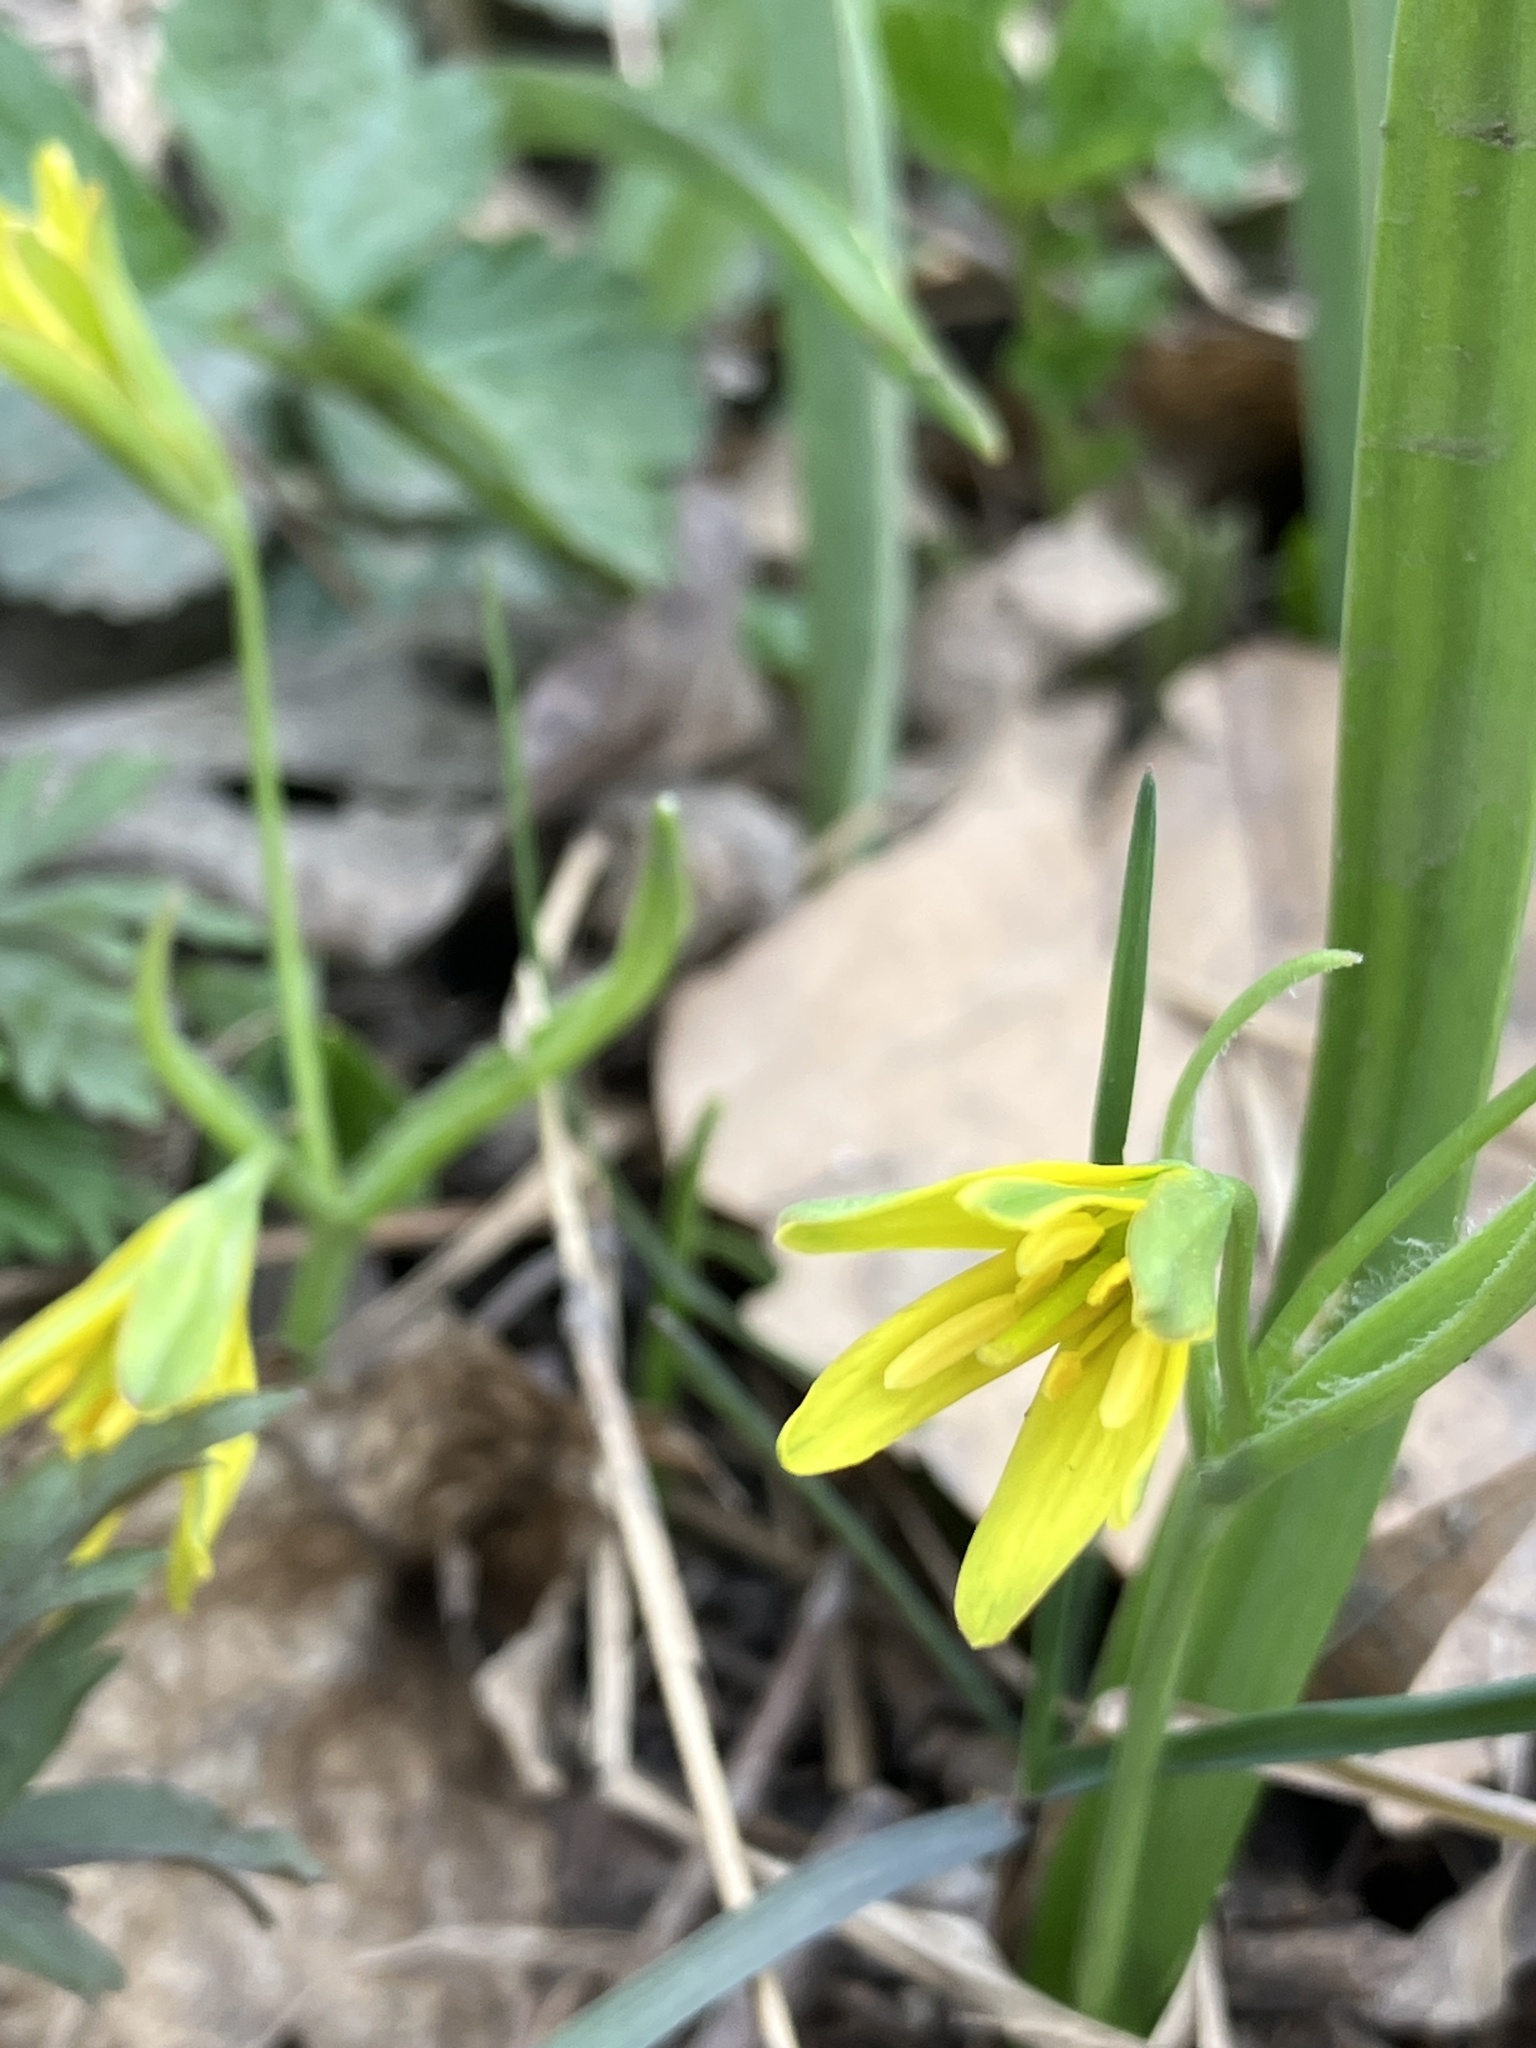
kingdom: Plantae
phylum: Tracheophyta
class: Liliopsida
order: Liliales
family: Liliaceae
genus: Gagea
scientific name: Gagea lutea
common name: Yellow star-of-bethlehem
